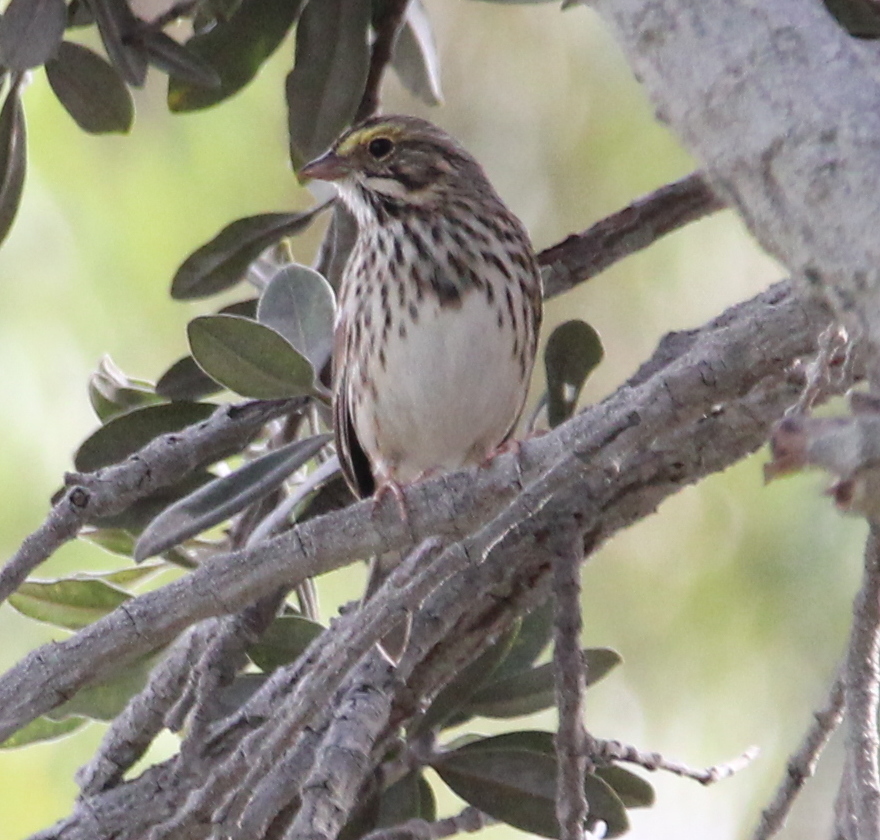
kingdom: Animalia
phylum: Chordata
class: Aves
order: Passeriformes
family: Passerellidae
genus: Passerculus
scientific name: Passerculus sandwichensis
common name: Savannah sparrow
